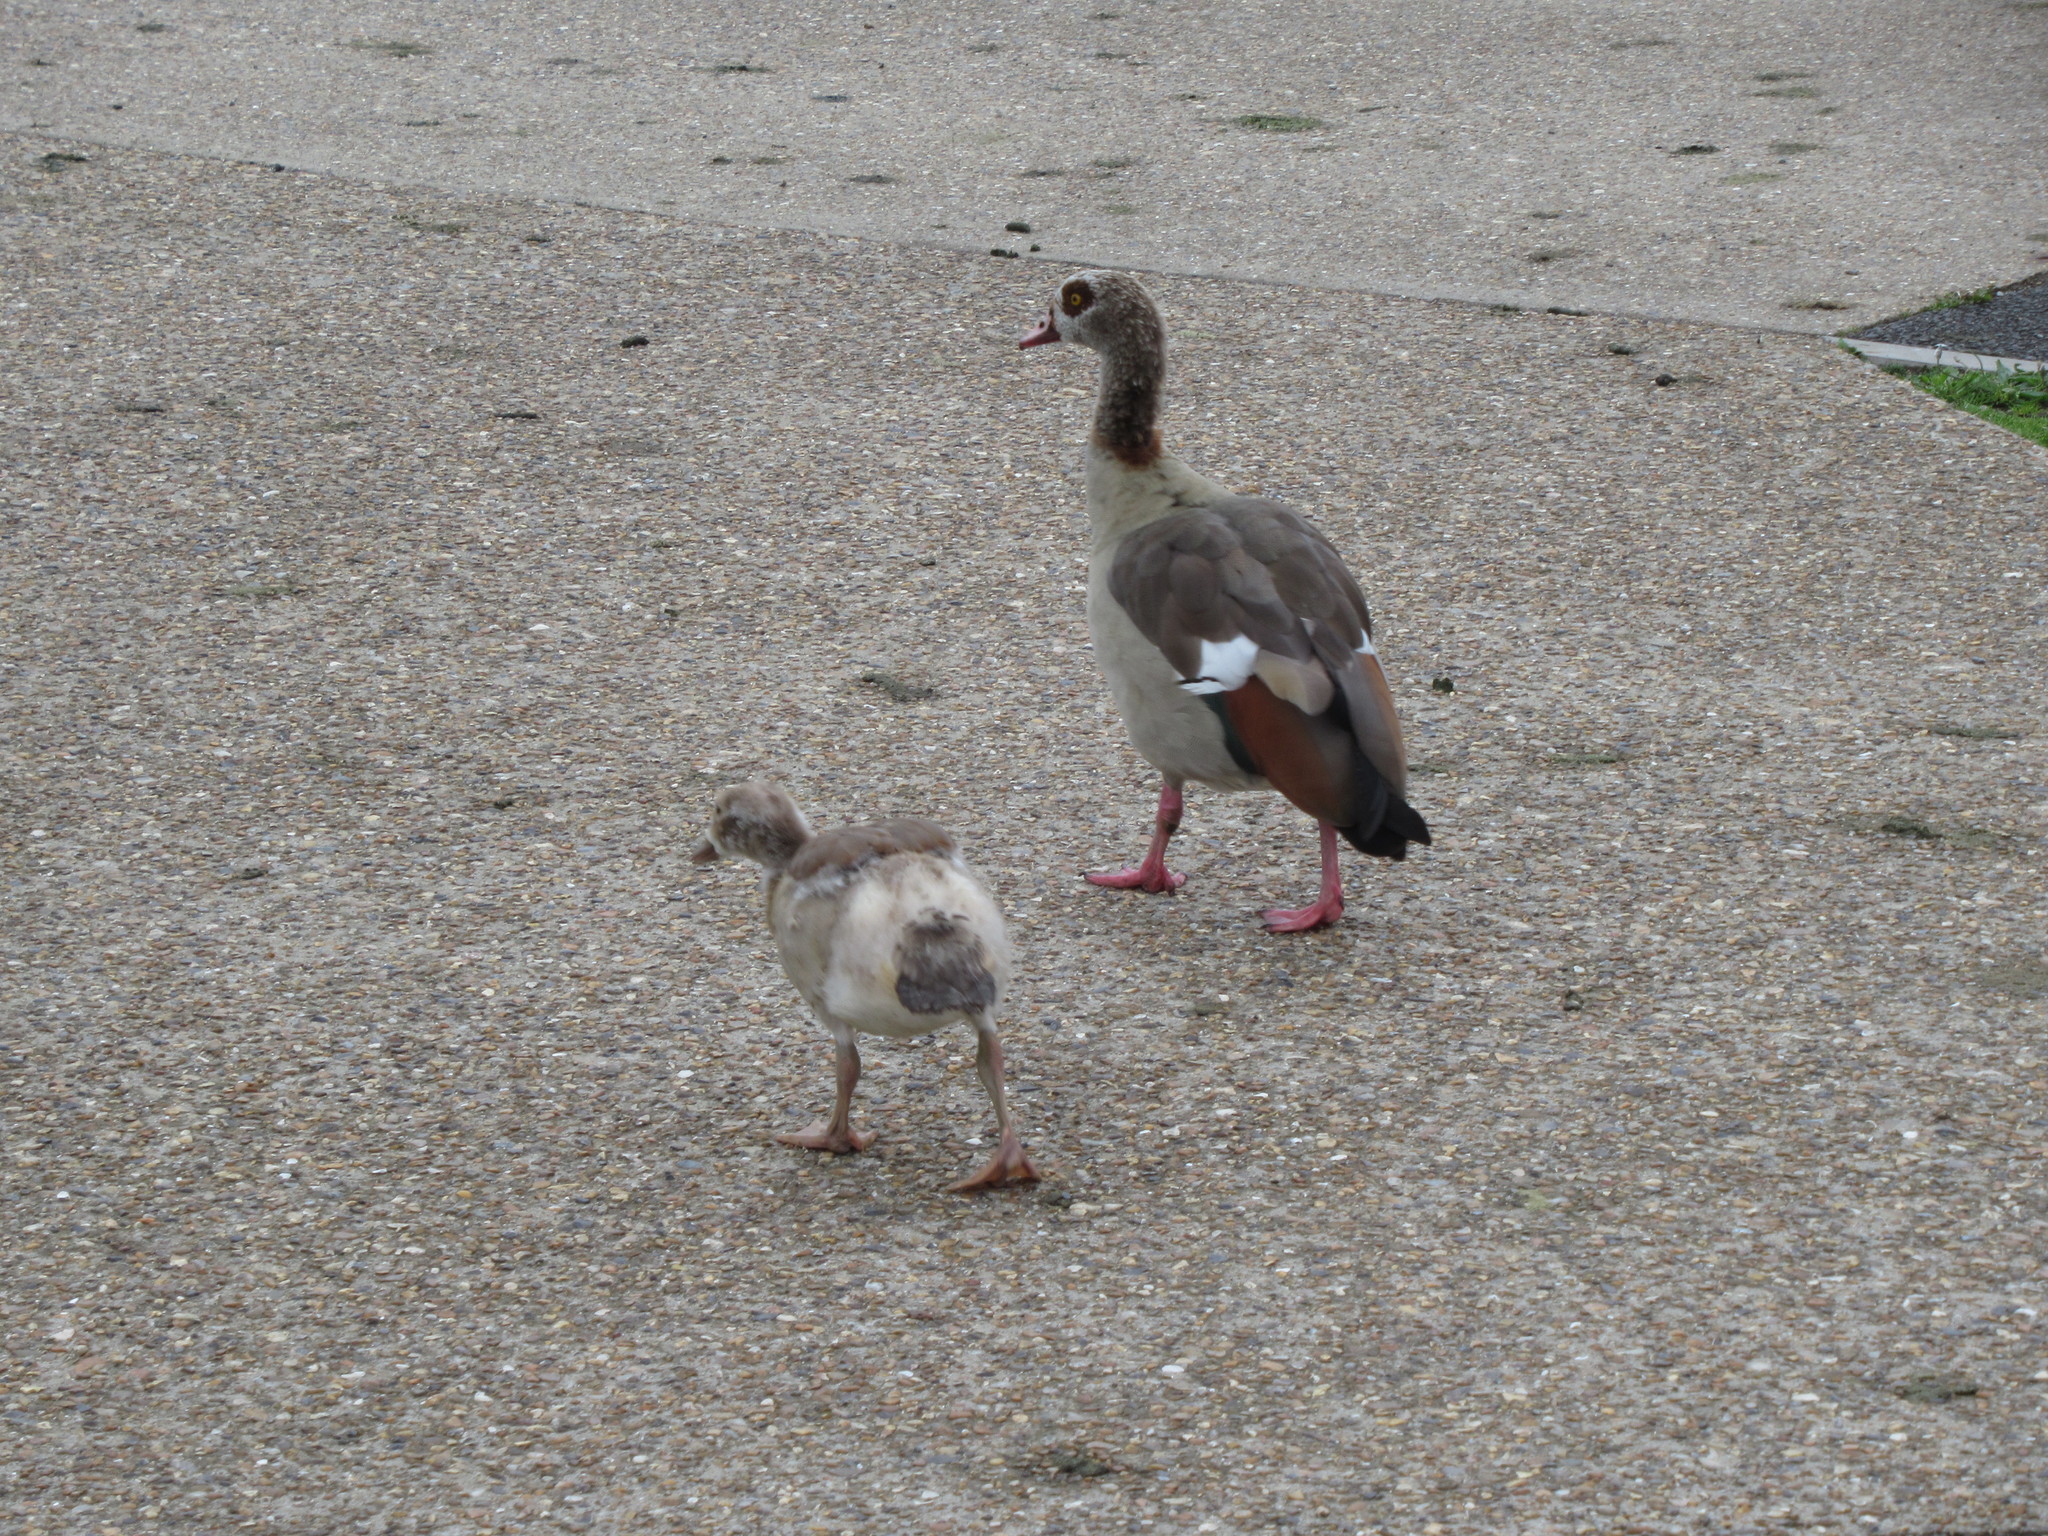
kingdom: Animalia
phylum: Chordata
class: Aves
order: Anseriformes
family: Anatidae
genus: Alopochen
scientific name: Alopochen aegyptiaca
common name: Egyptian goose
